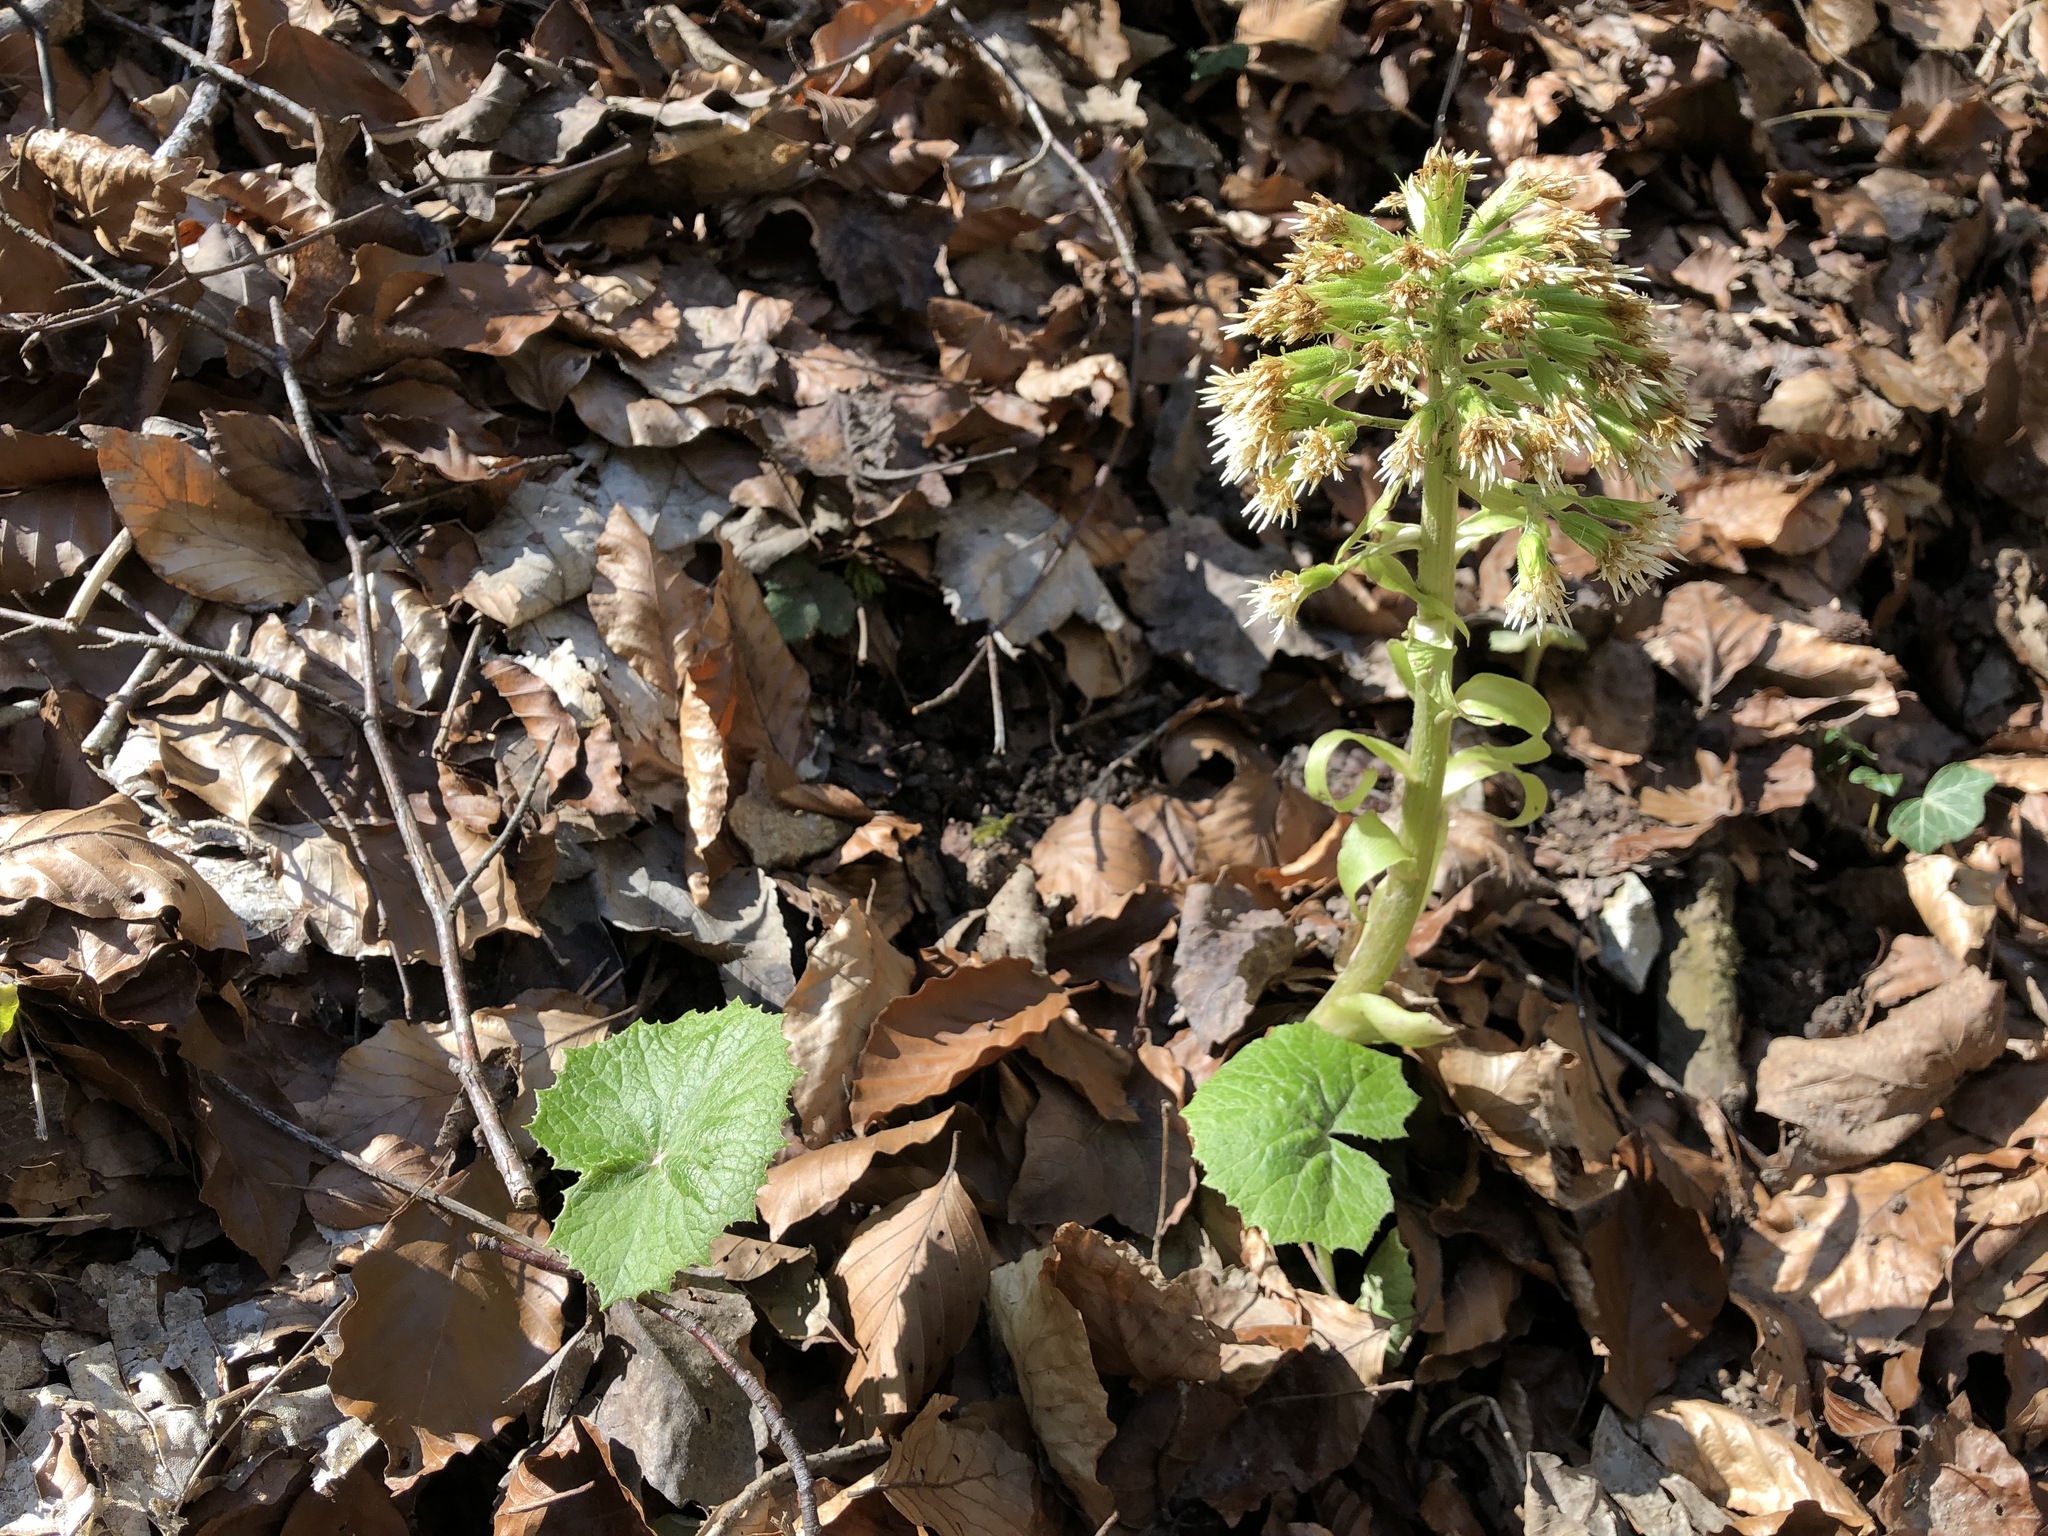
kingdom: Plantae
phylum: Tracheophyta
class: Magnoliopsida
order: Asterales
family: Asteraceae
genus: Petasites
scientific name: Petasites albus
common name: White butterbur
